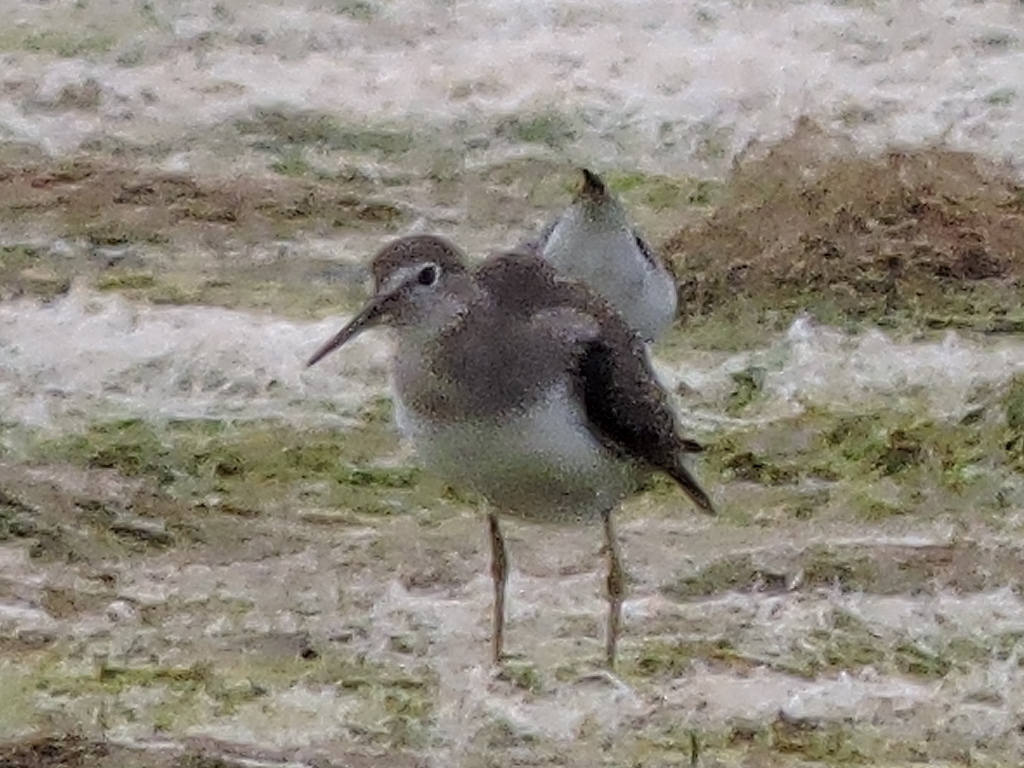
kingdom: Animalia
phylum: Chordata
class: Aves
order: Charadriiformes
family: Scolopacidae
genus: Tringa
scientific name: Tringa solitaria
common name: Solitary sandpiper
